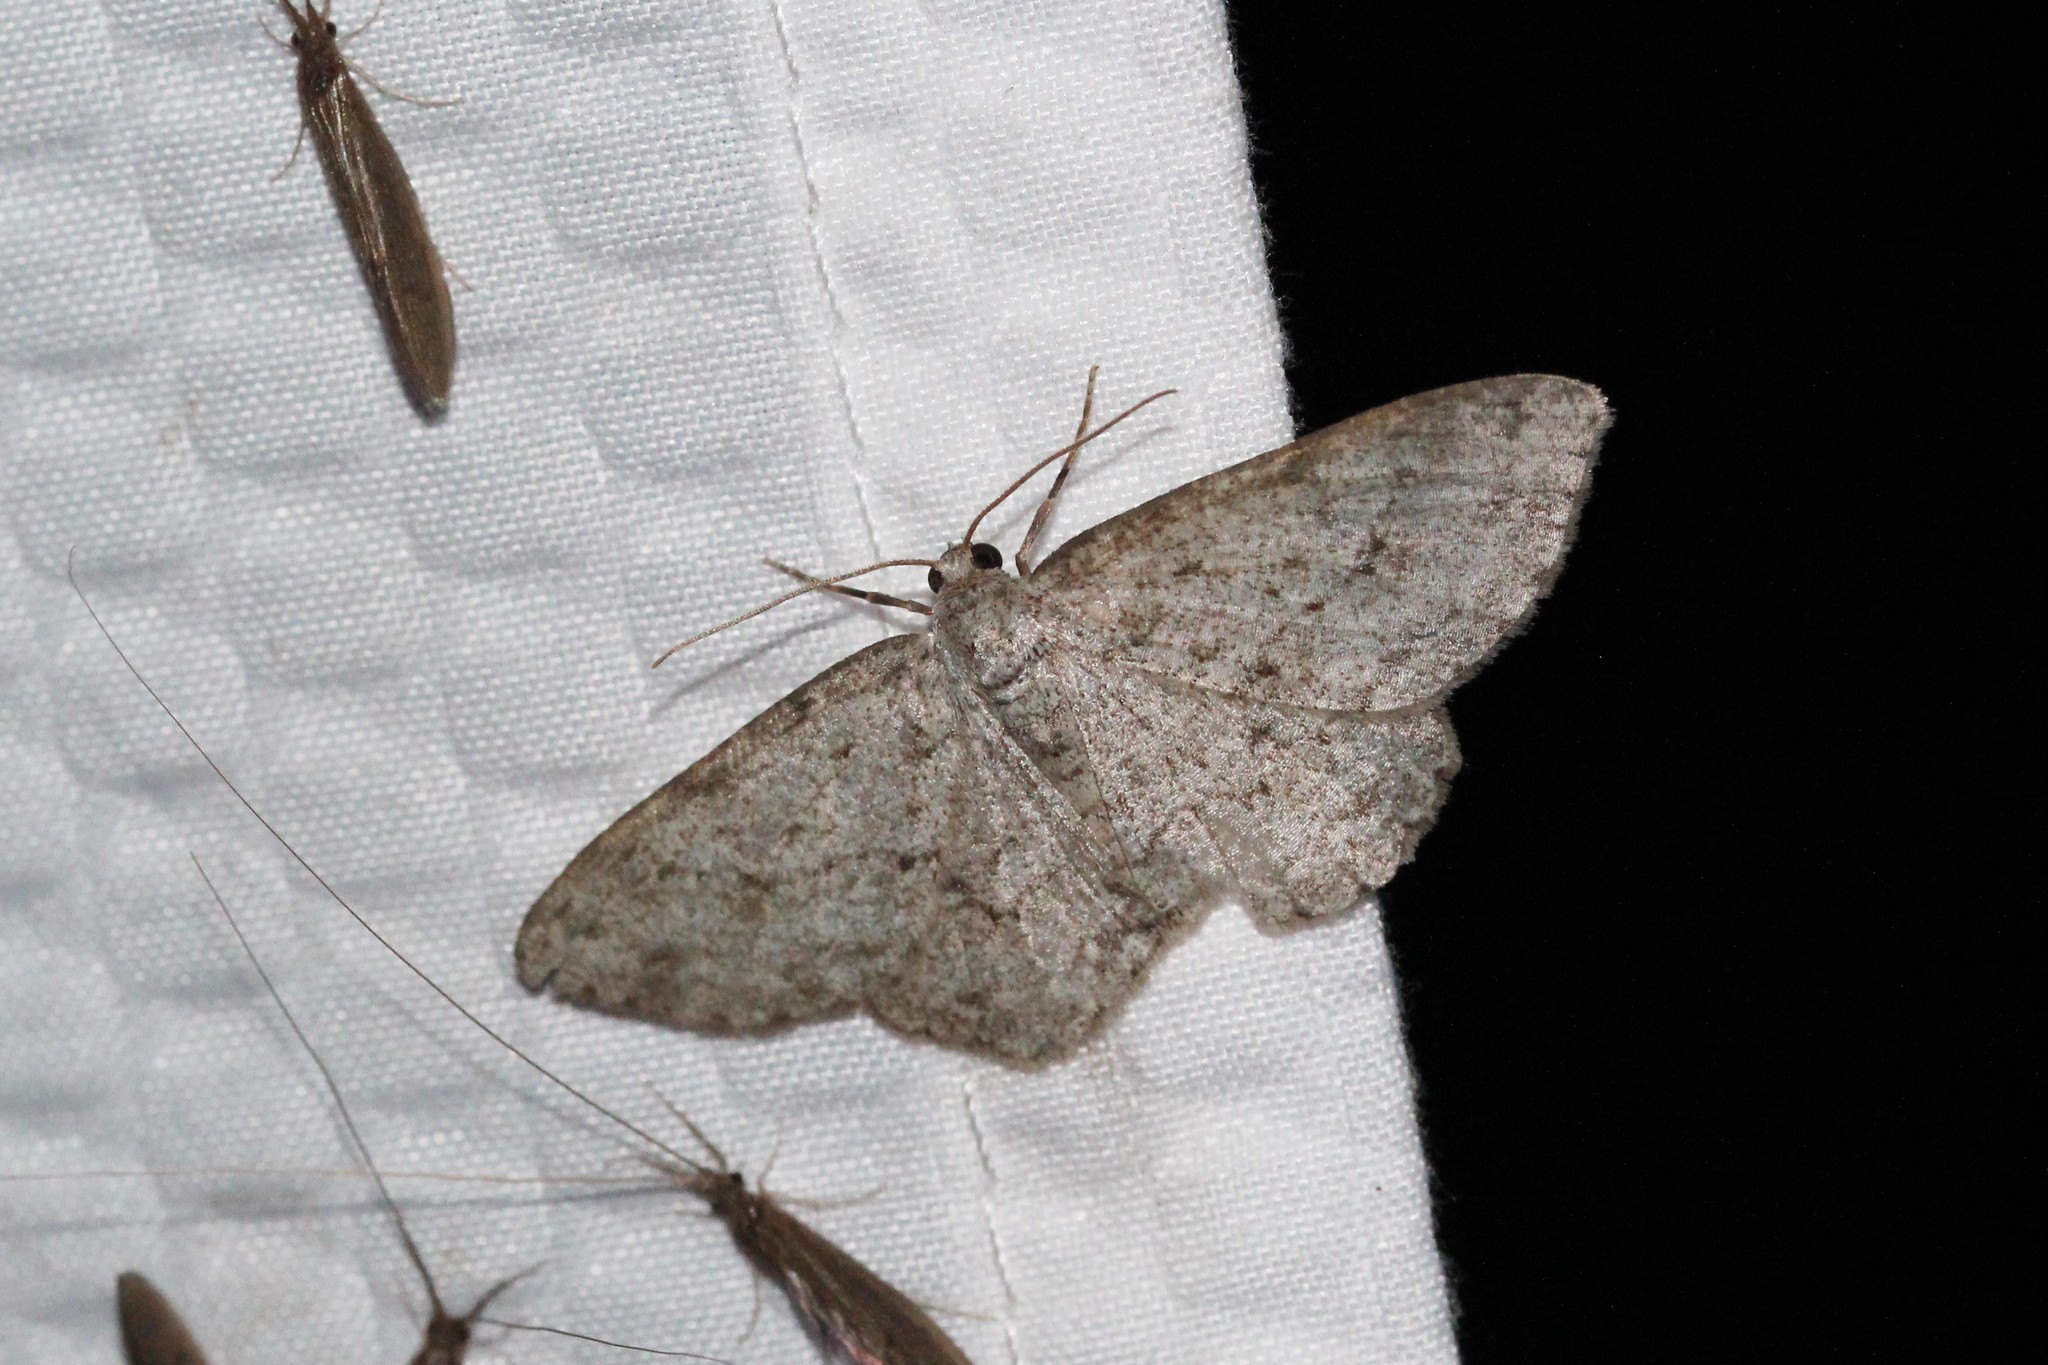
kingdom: Animalia
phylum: Arthropoda
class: Insecta
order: Lepidoptera
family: Geometridae
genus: Ectropis
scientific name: Ectropis crepuscularia
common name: Engrailed
